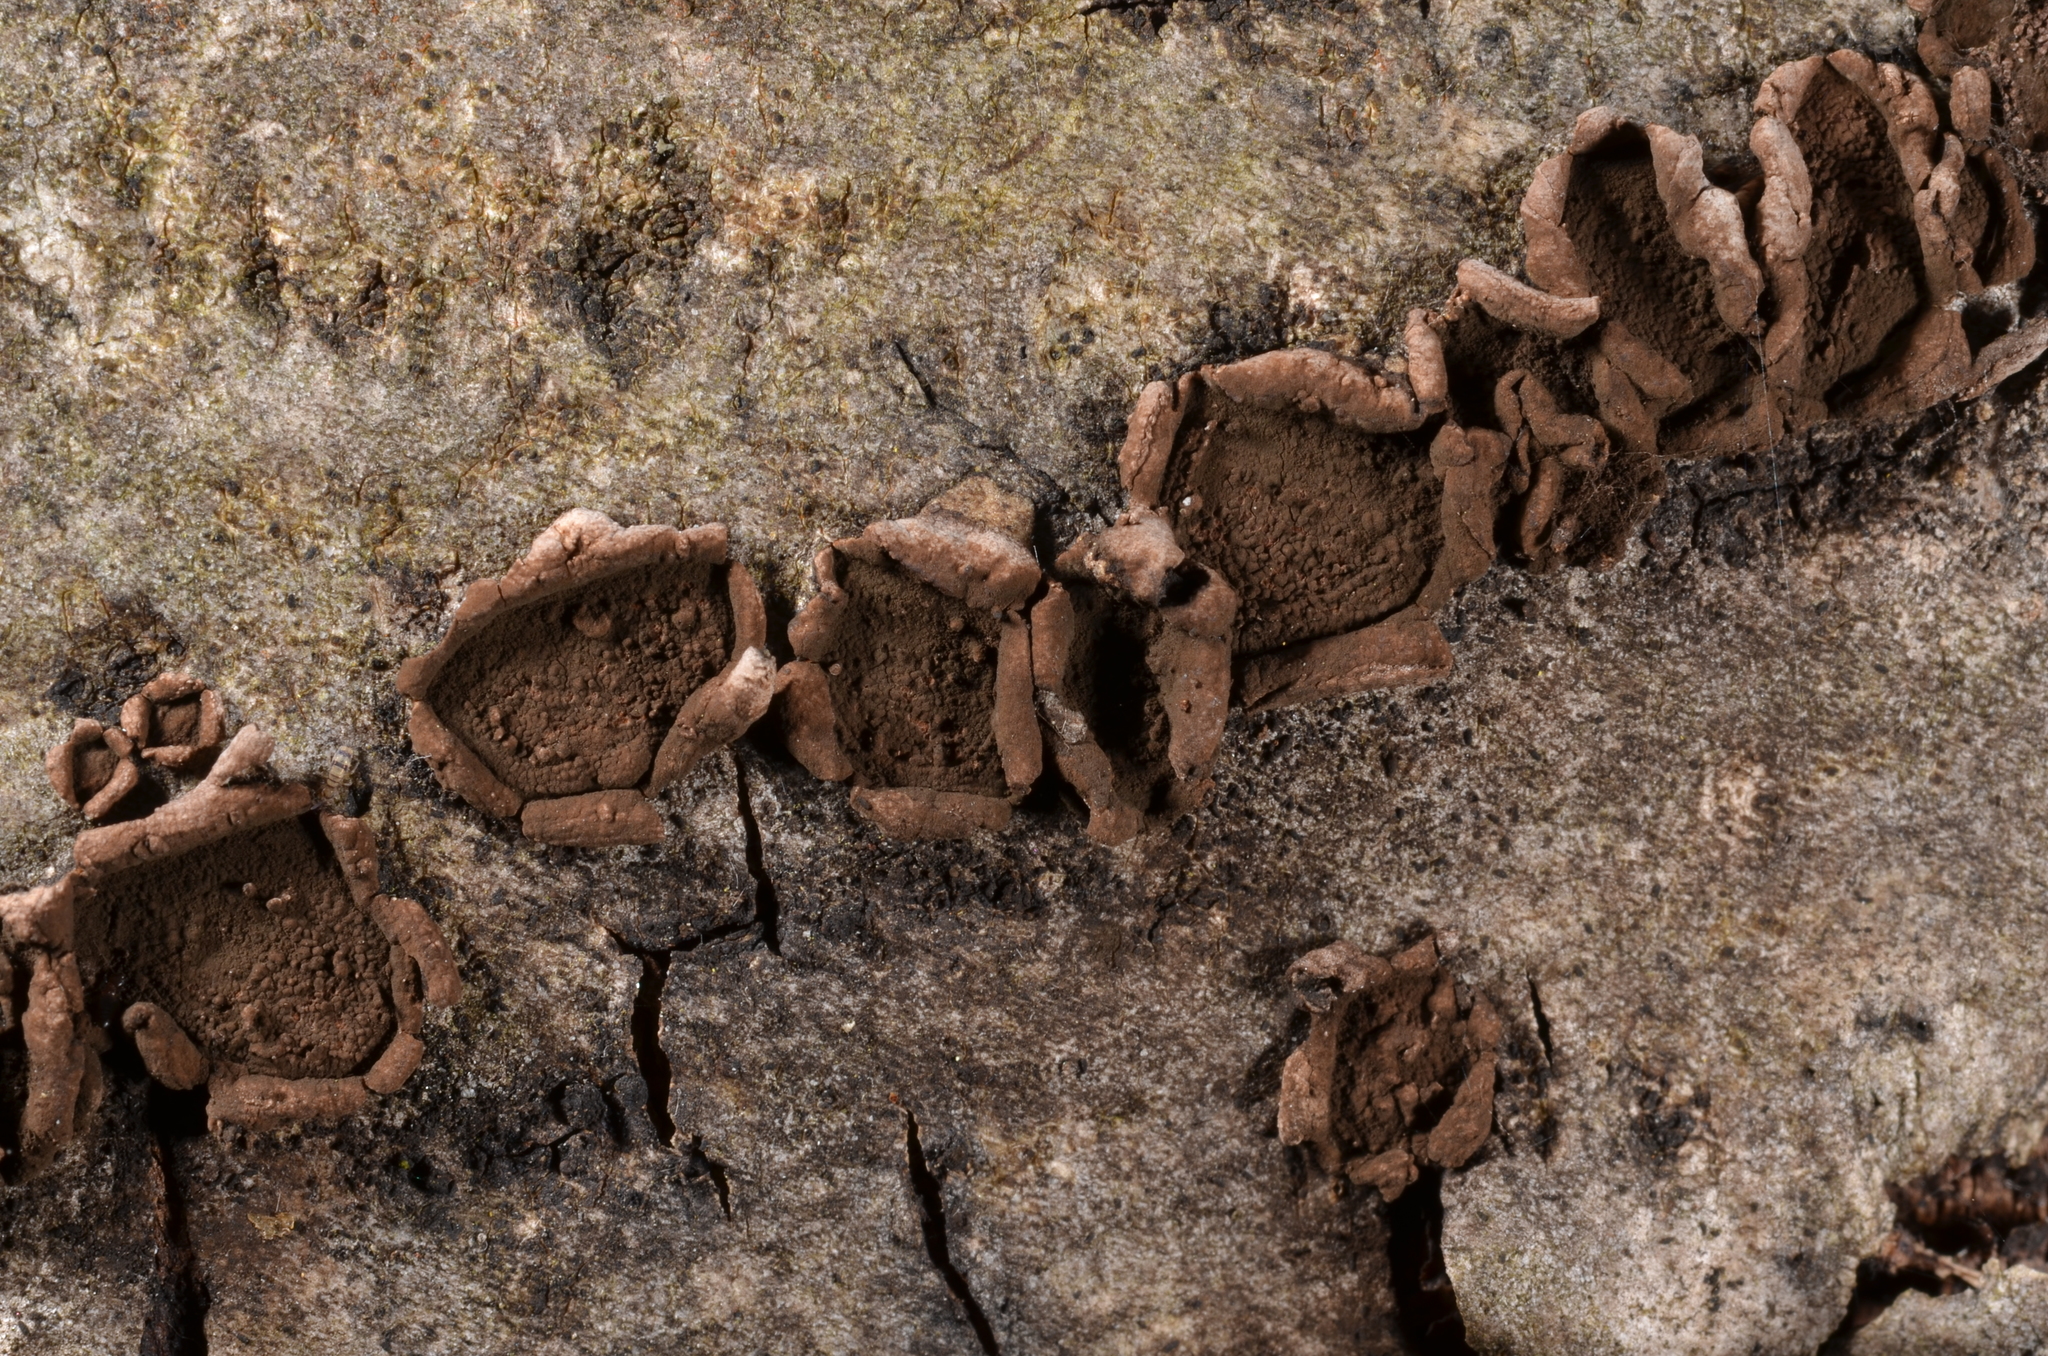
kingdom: Fungi
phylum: Ascomycota
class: Sordariomycetes
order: Xylariales
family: Hypoxylaceae
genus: Hypoxylon
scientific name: Hypoxylon cercidicola
